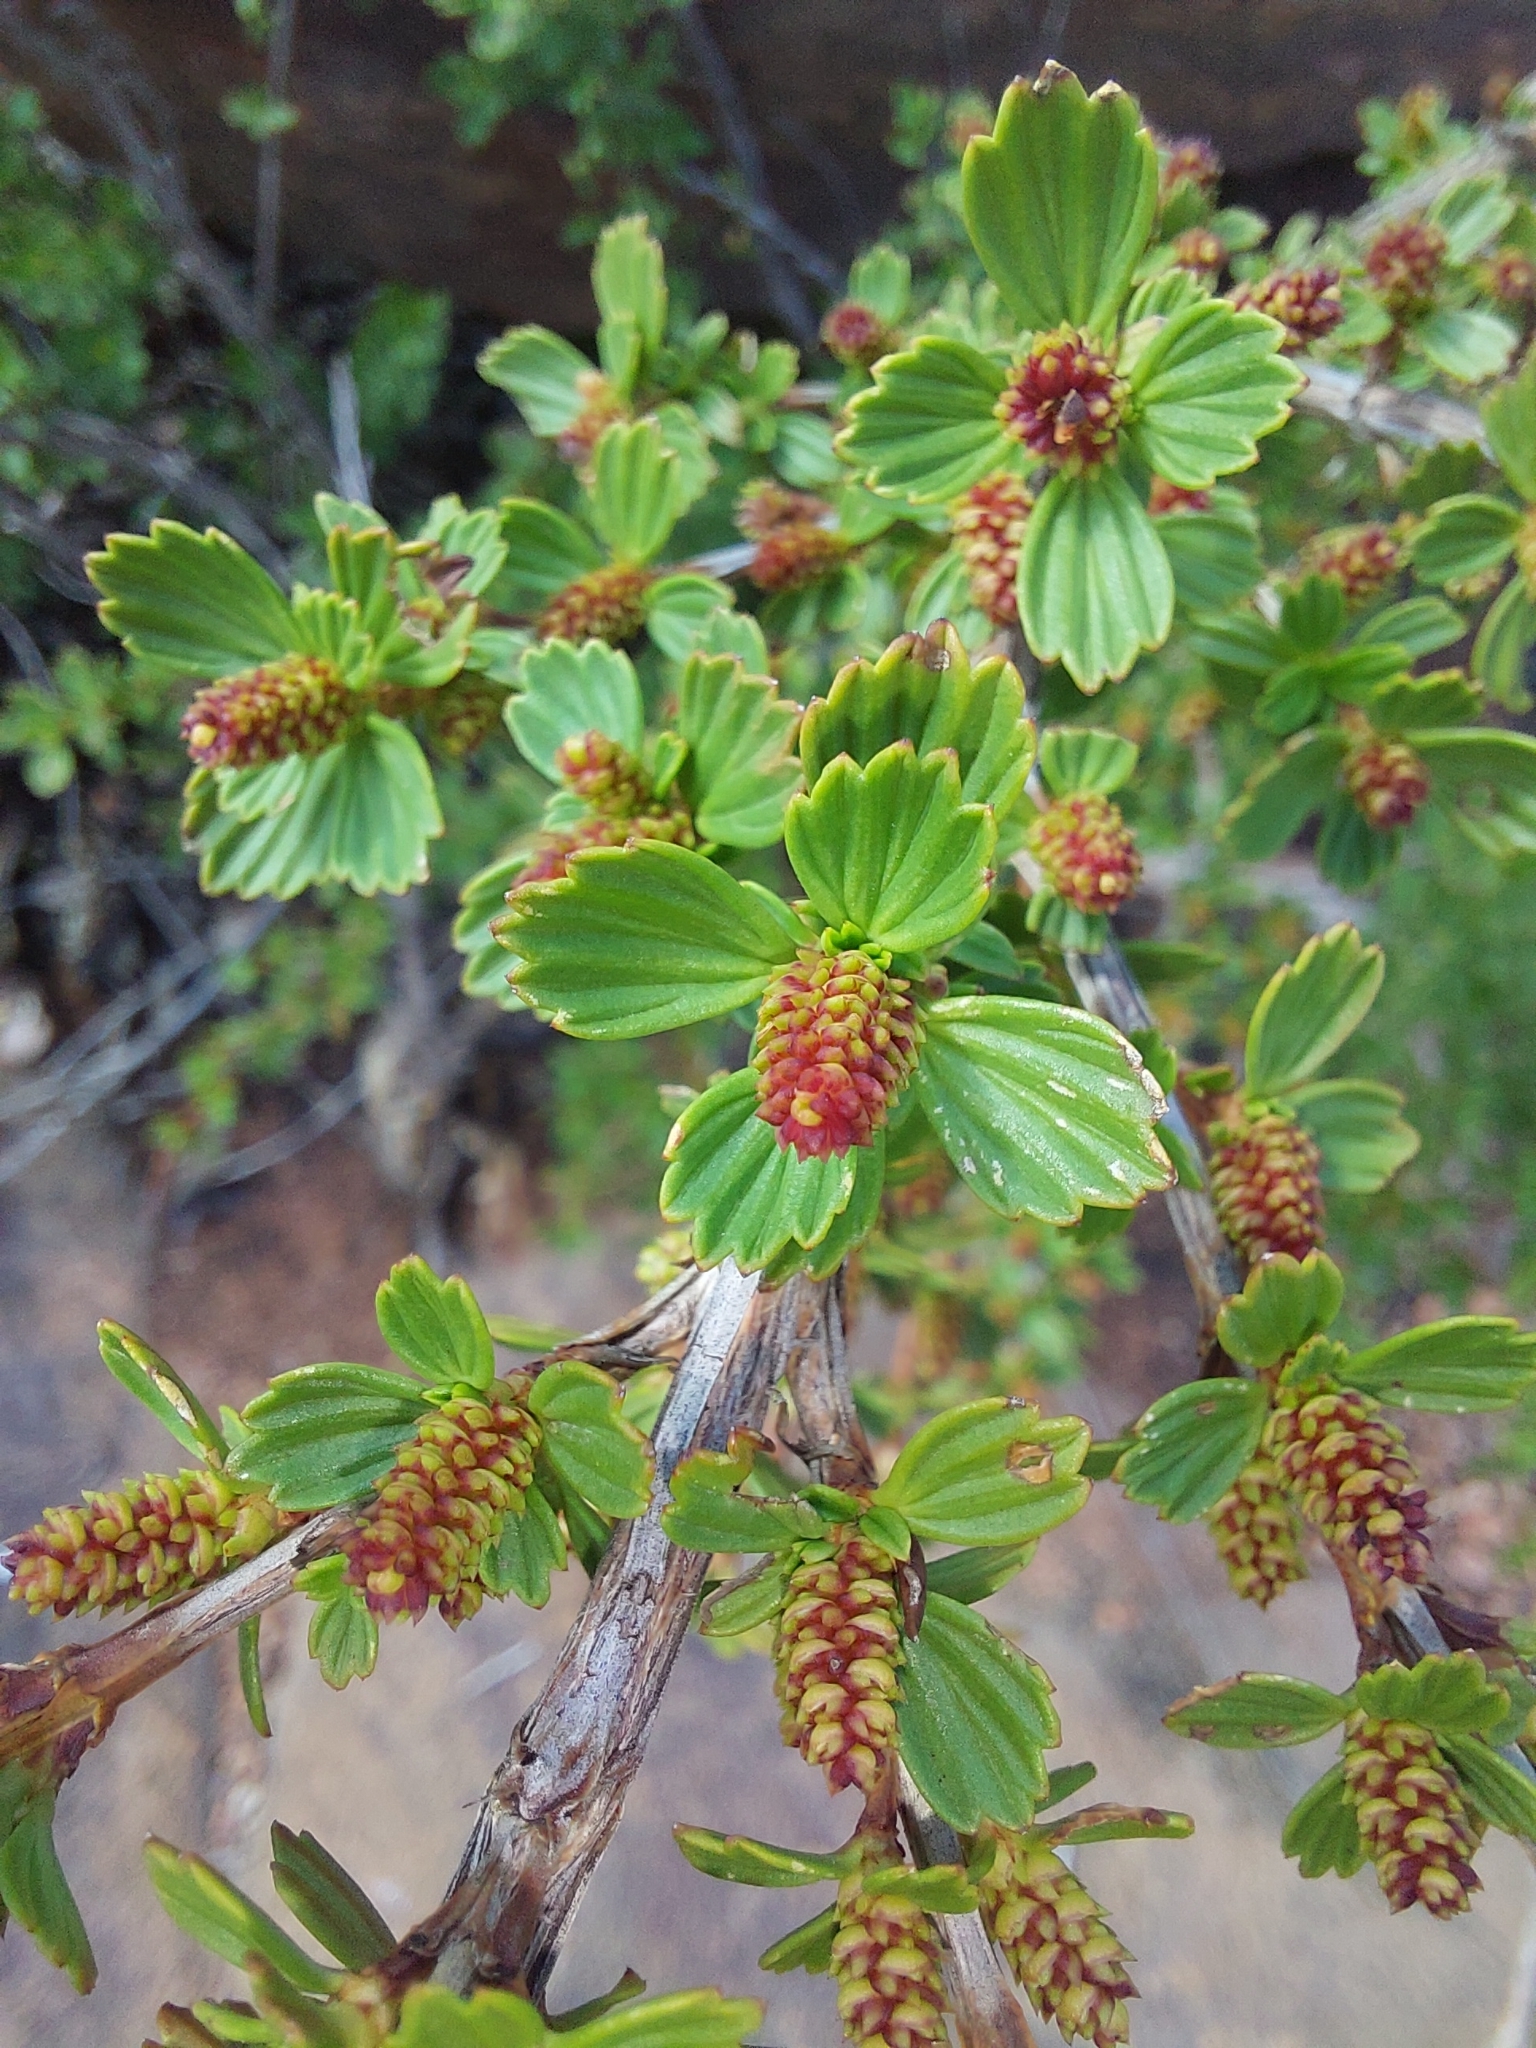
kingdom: Plantae
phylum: Tracheophyta
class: Magnoliopsida
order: Gunnerales
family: Myrothamnaceae
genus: Myrothamnus
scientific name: Myrothamnus flabellifolius
